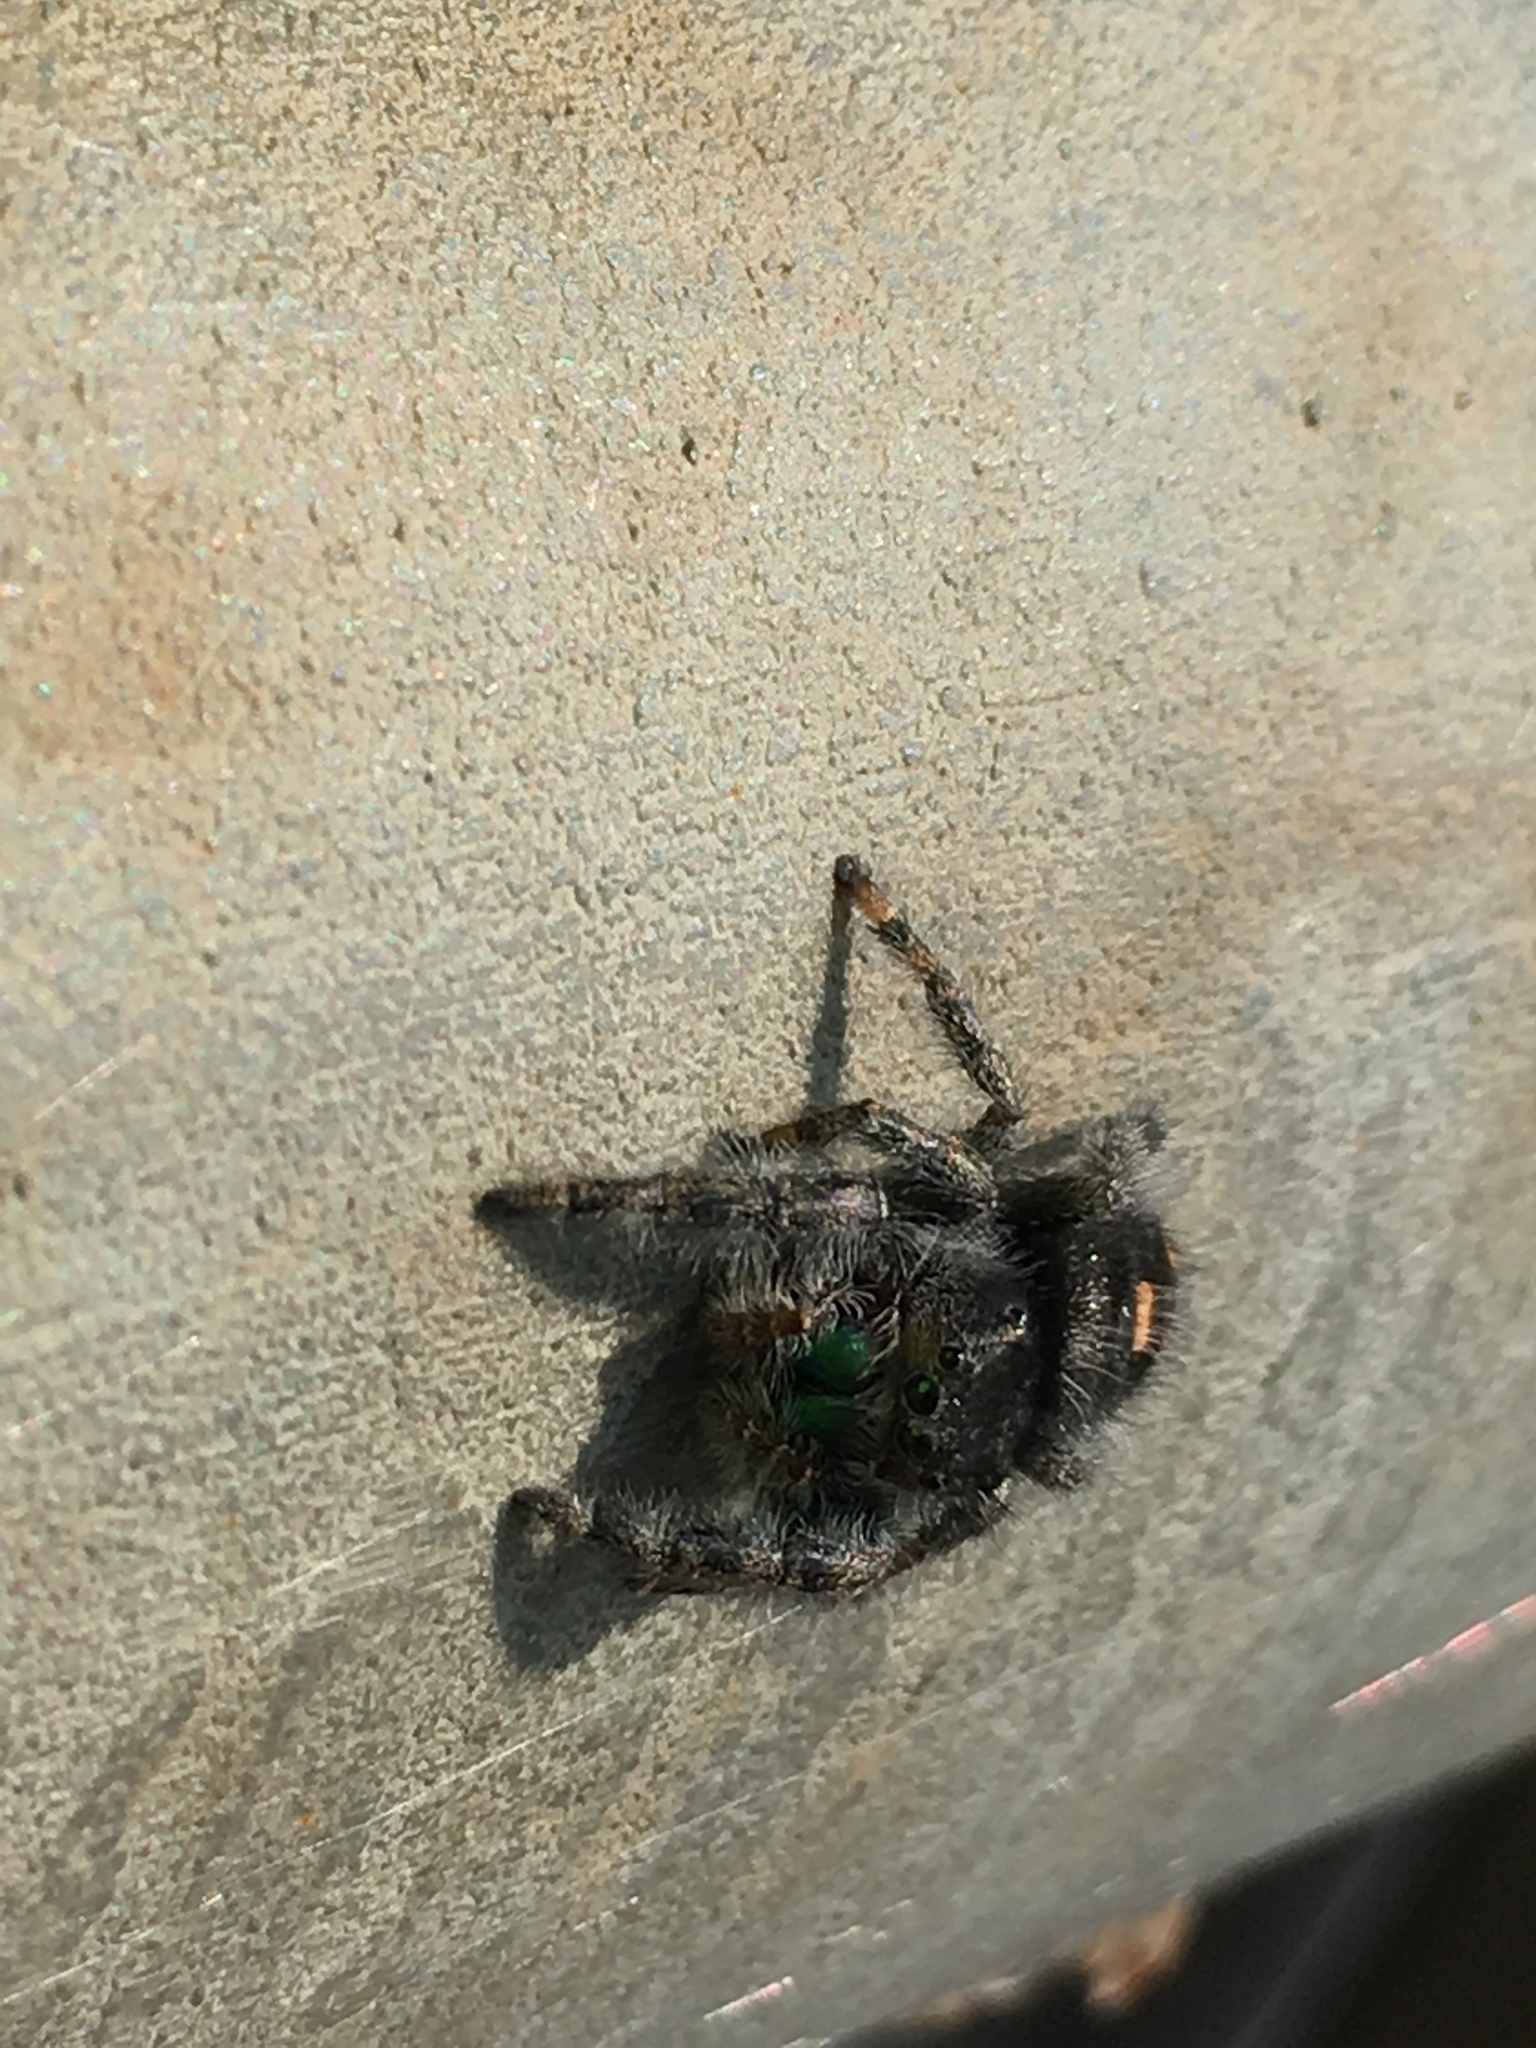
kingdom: Animalia
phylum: Arthropoda
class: Arachnida
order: Araneae
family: Salticidae
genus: Phidippus
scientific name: Phidippus audax
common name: Bold jumper
